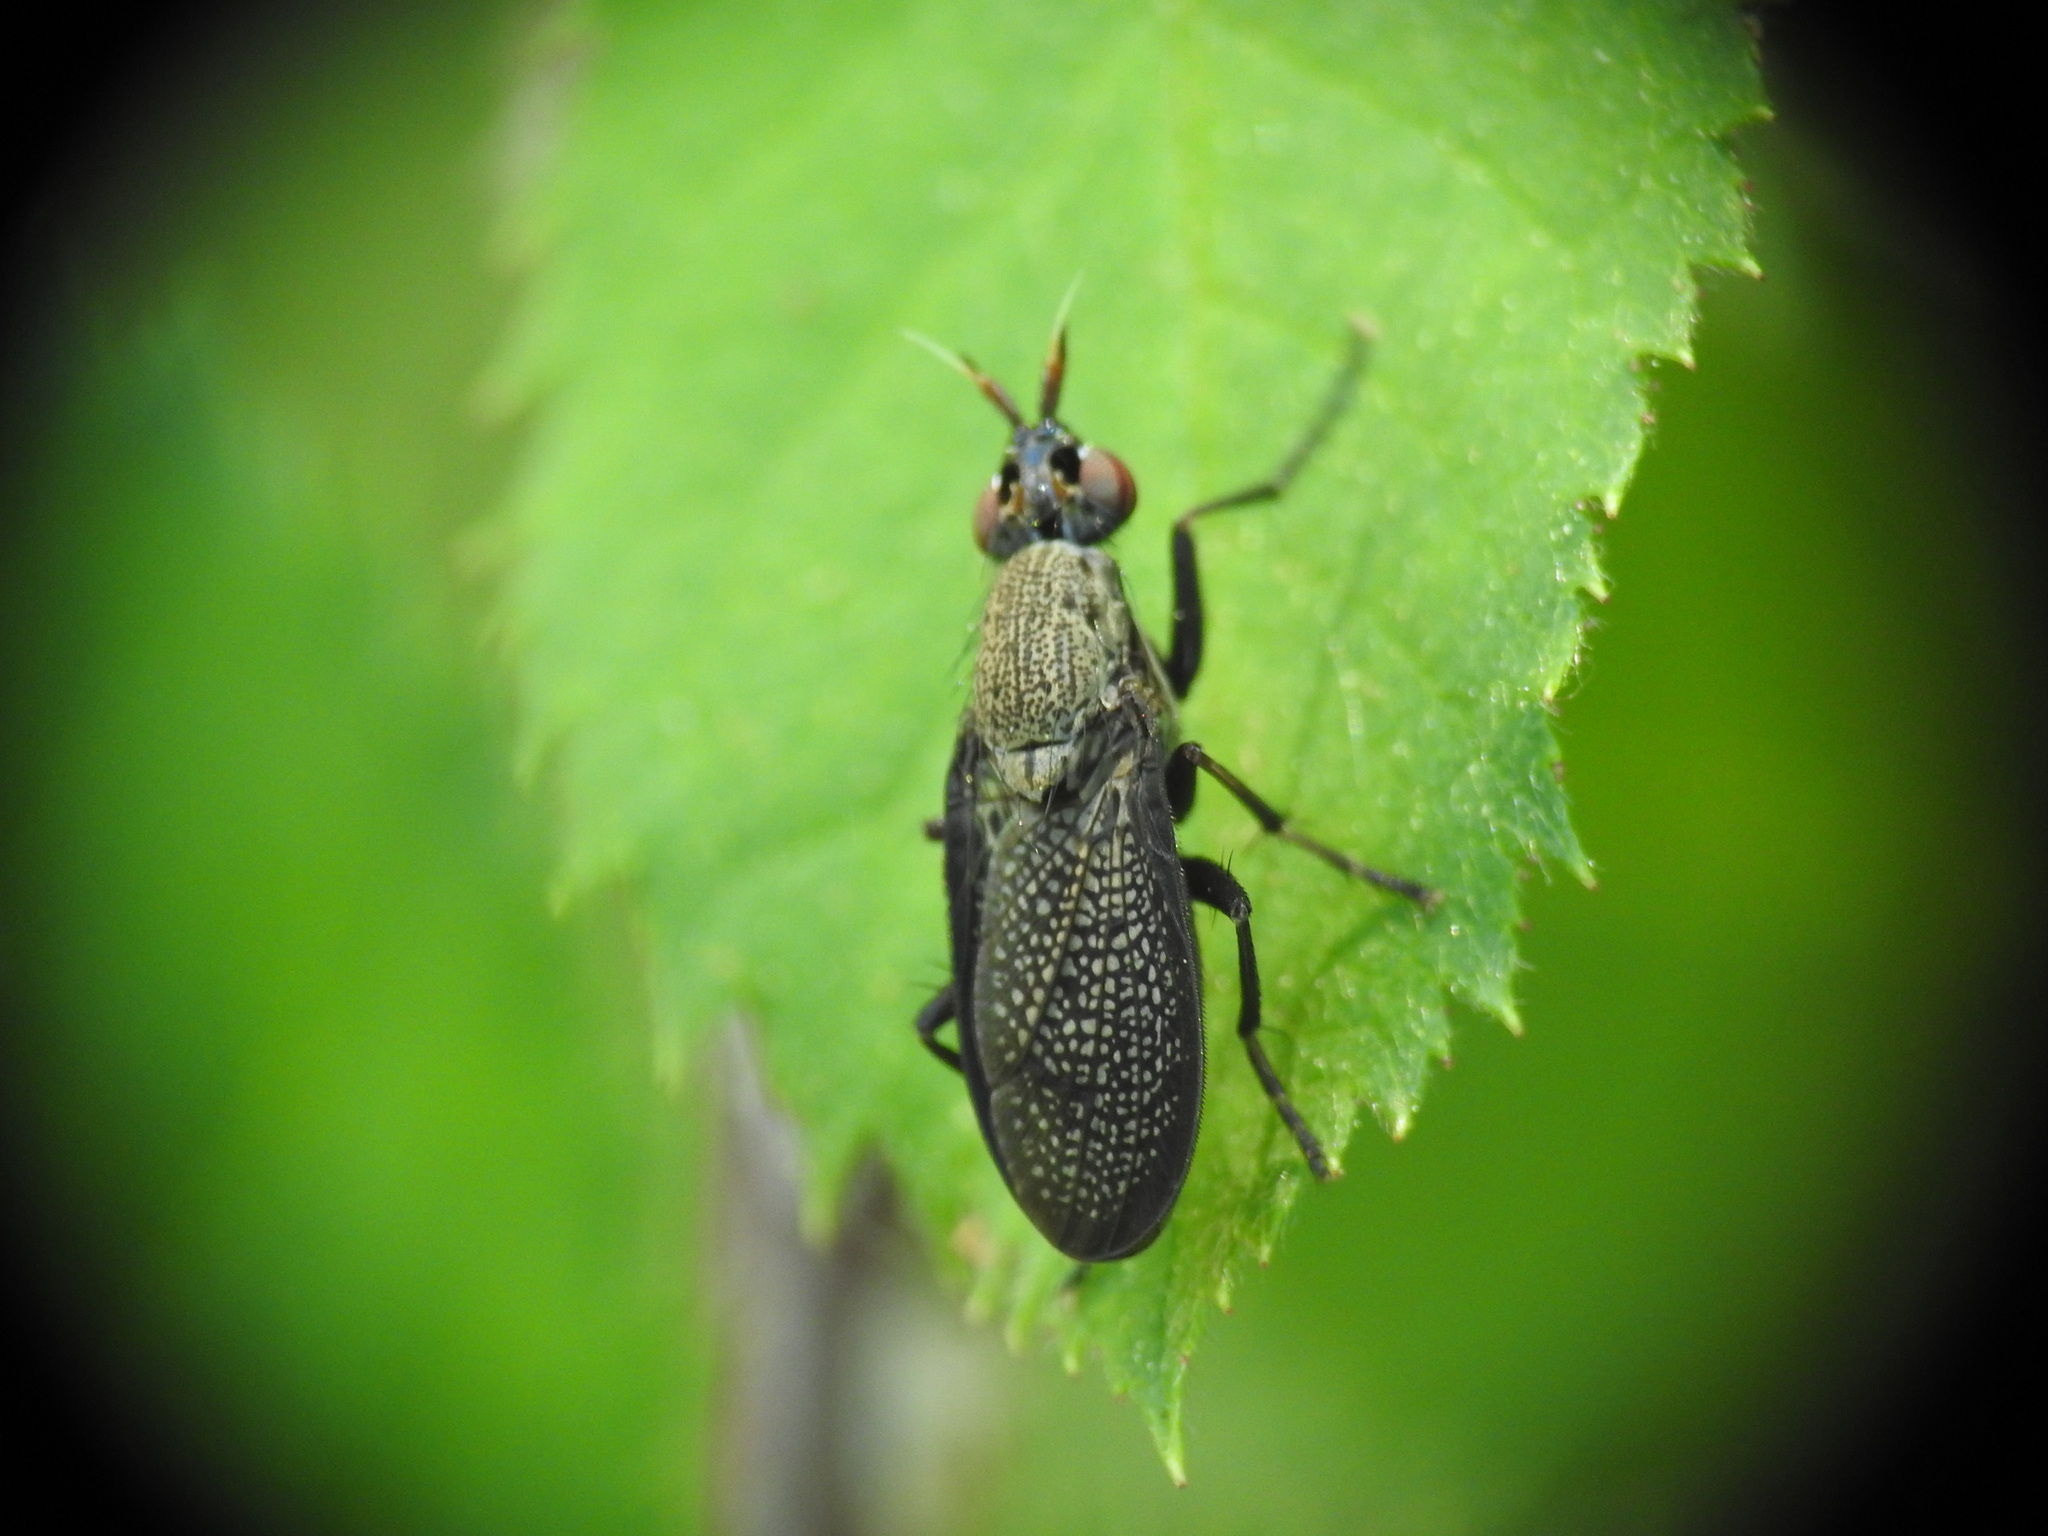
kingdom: Animalia
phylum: Arthropoda
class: Insecta
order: Diptera
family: Sciomyzidae
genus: Coremacera
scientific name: Coremacera marginata
